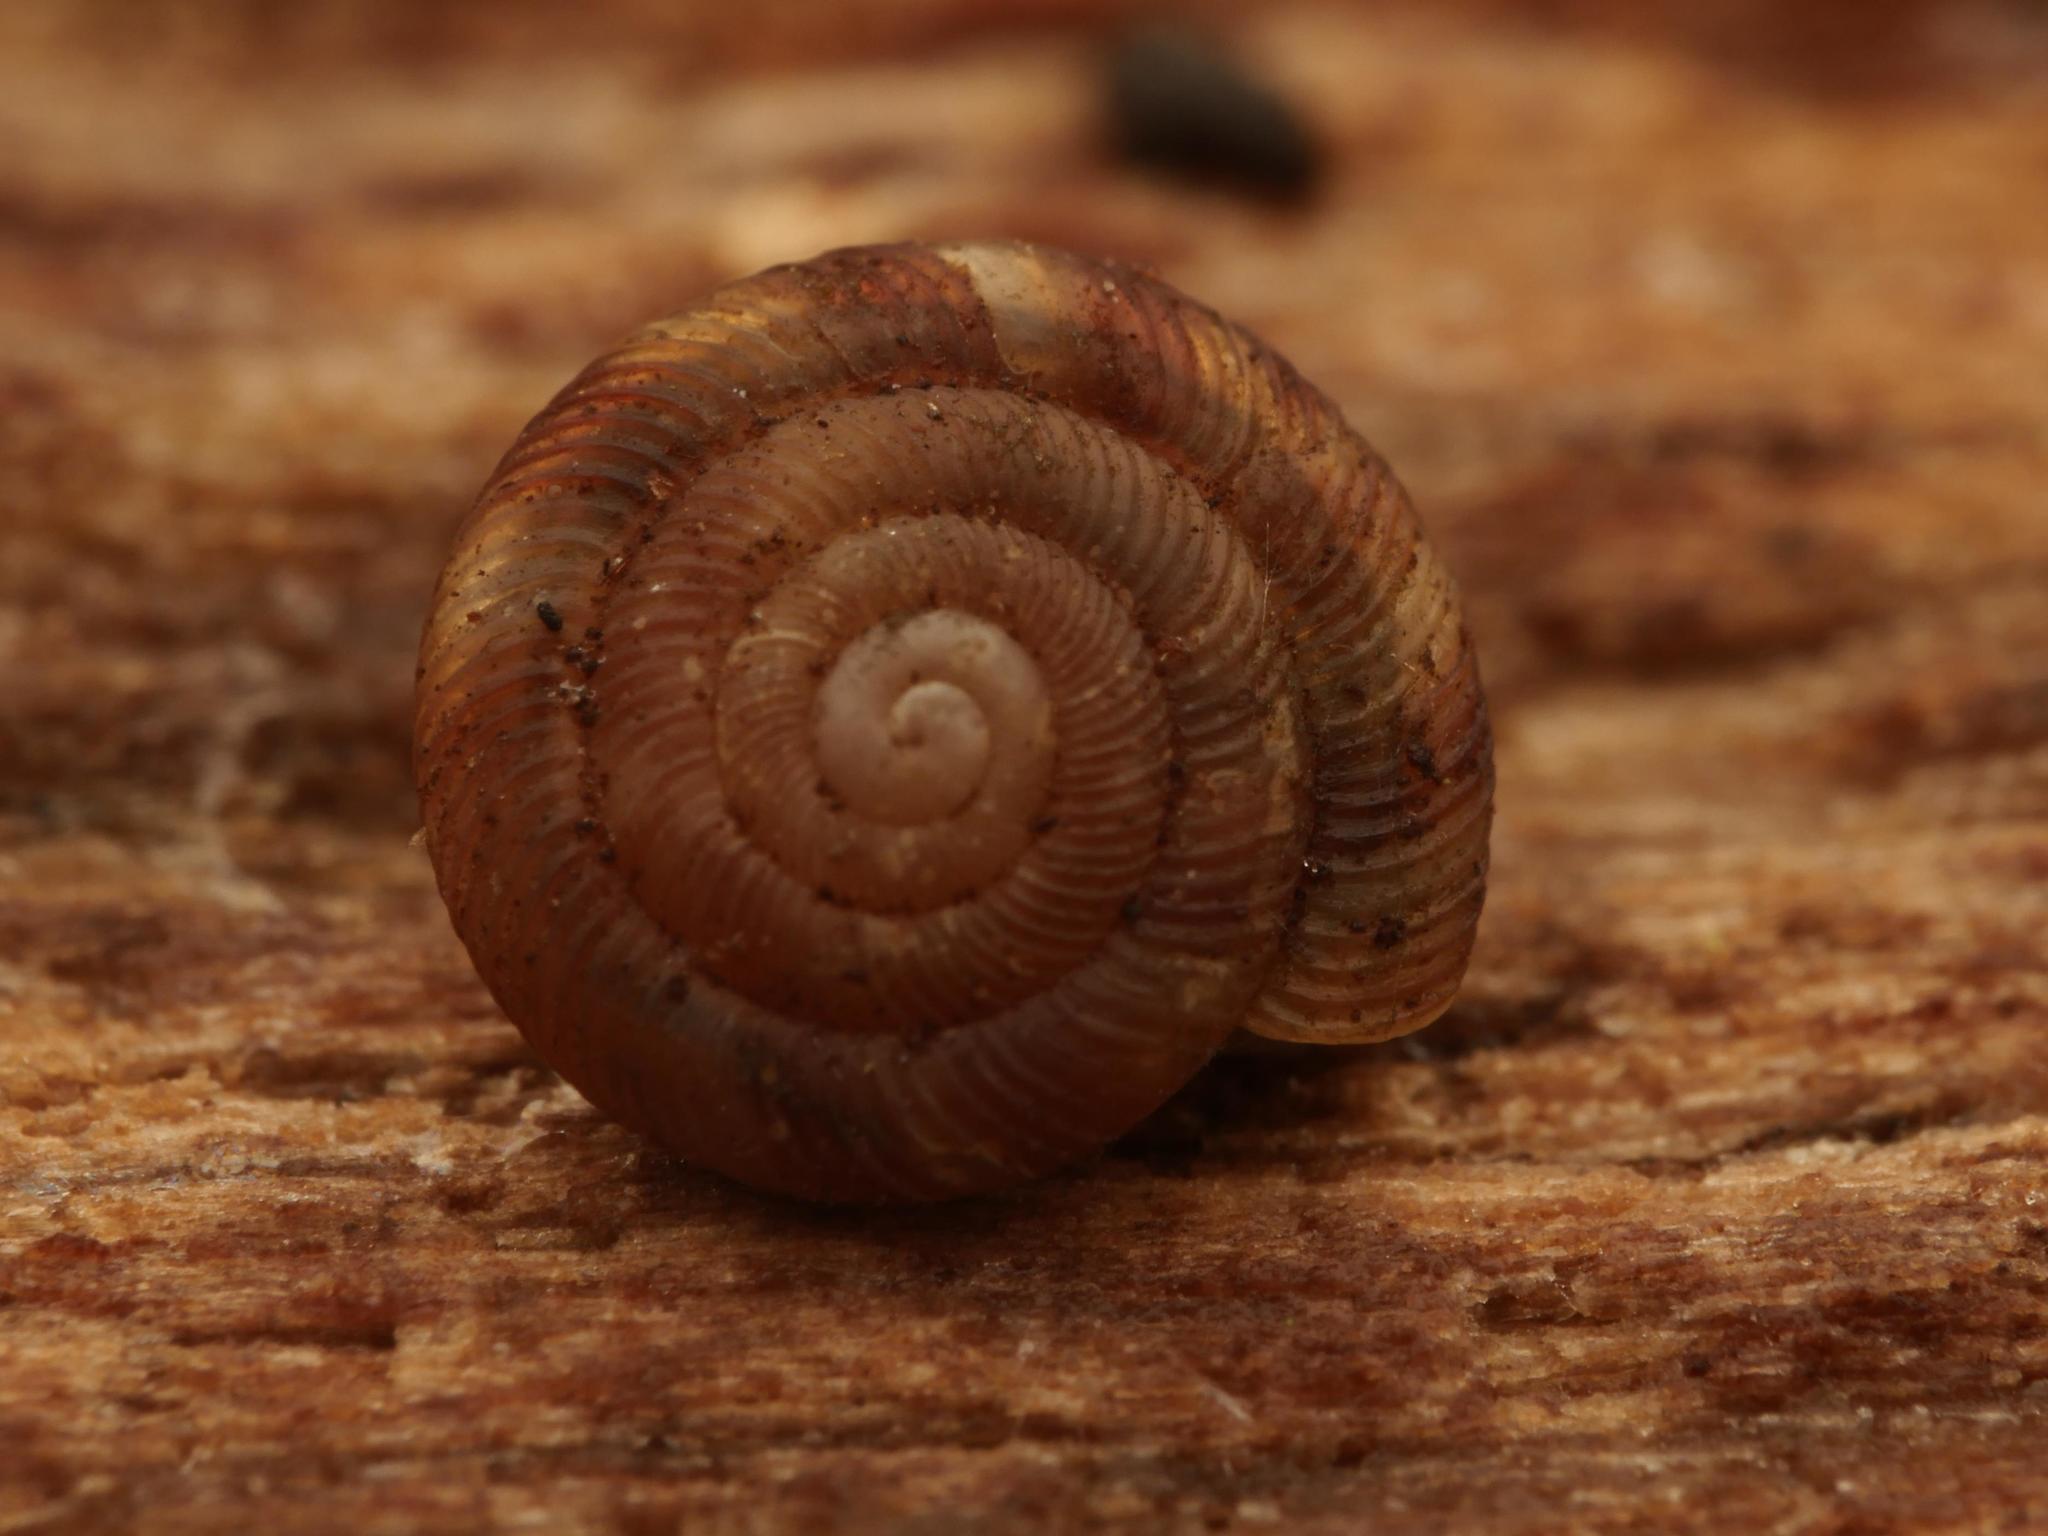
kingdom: Animalia
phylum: Mollusca
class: Gastropoda
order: Stylommatophora
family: Discidae
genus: Discus
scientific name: Discus rotundatus
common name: Rounded snail
